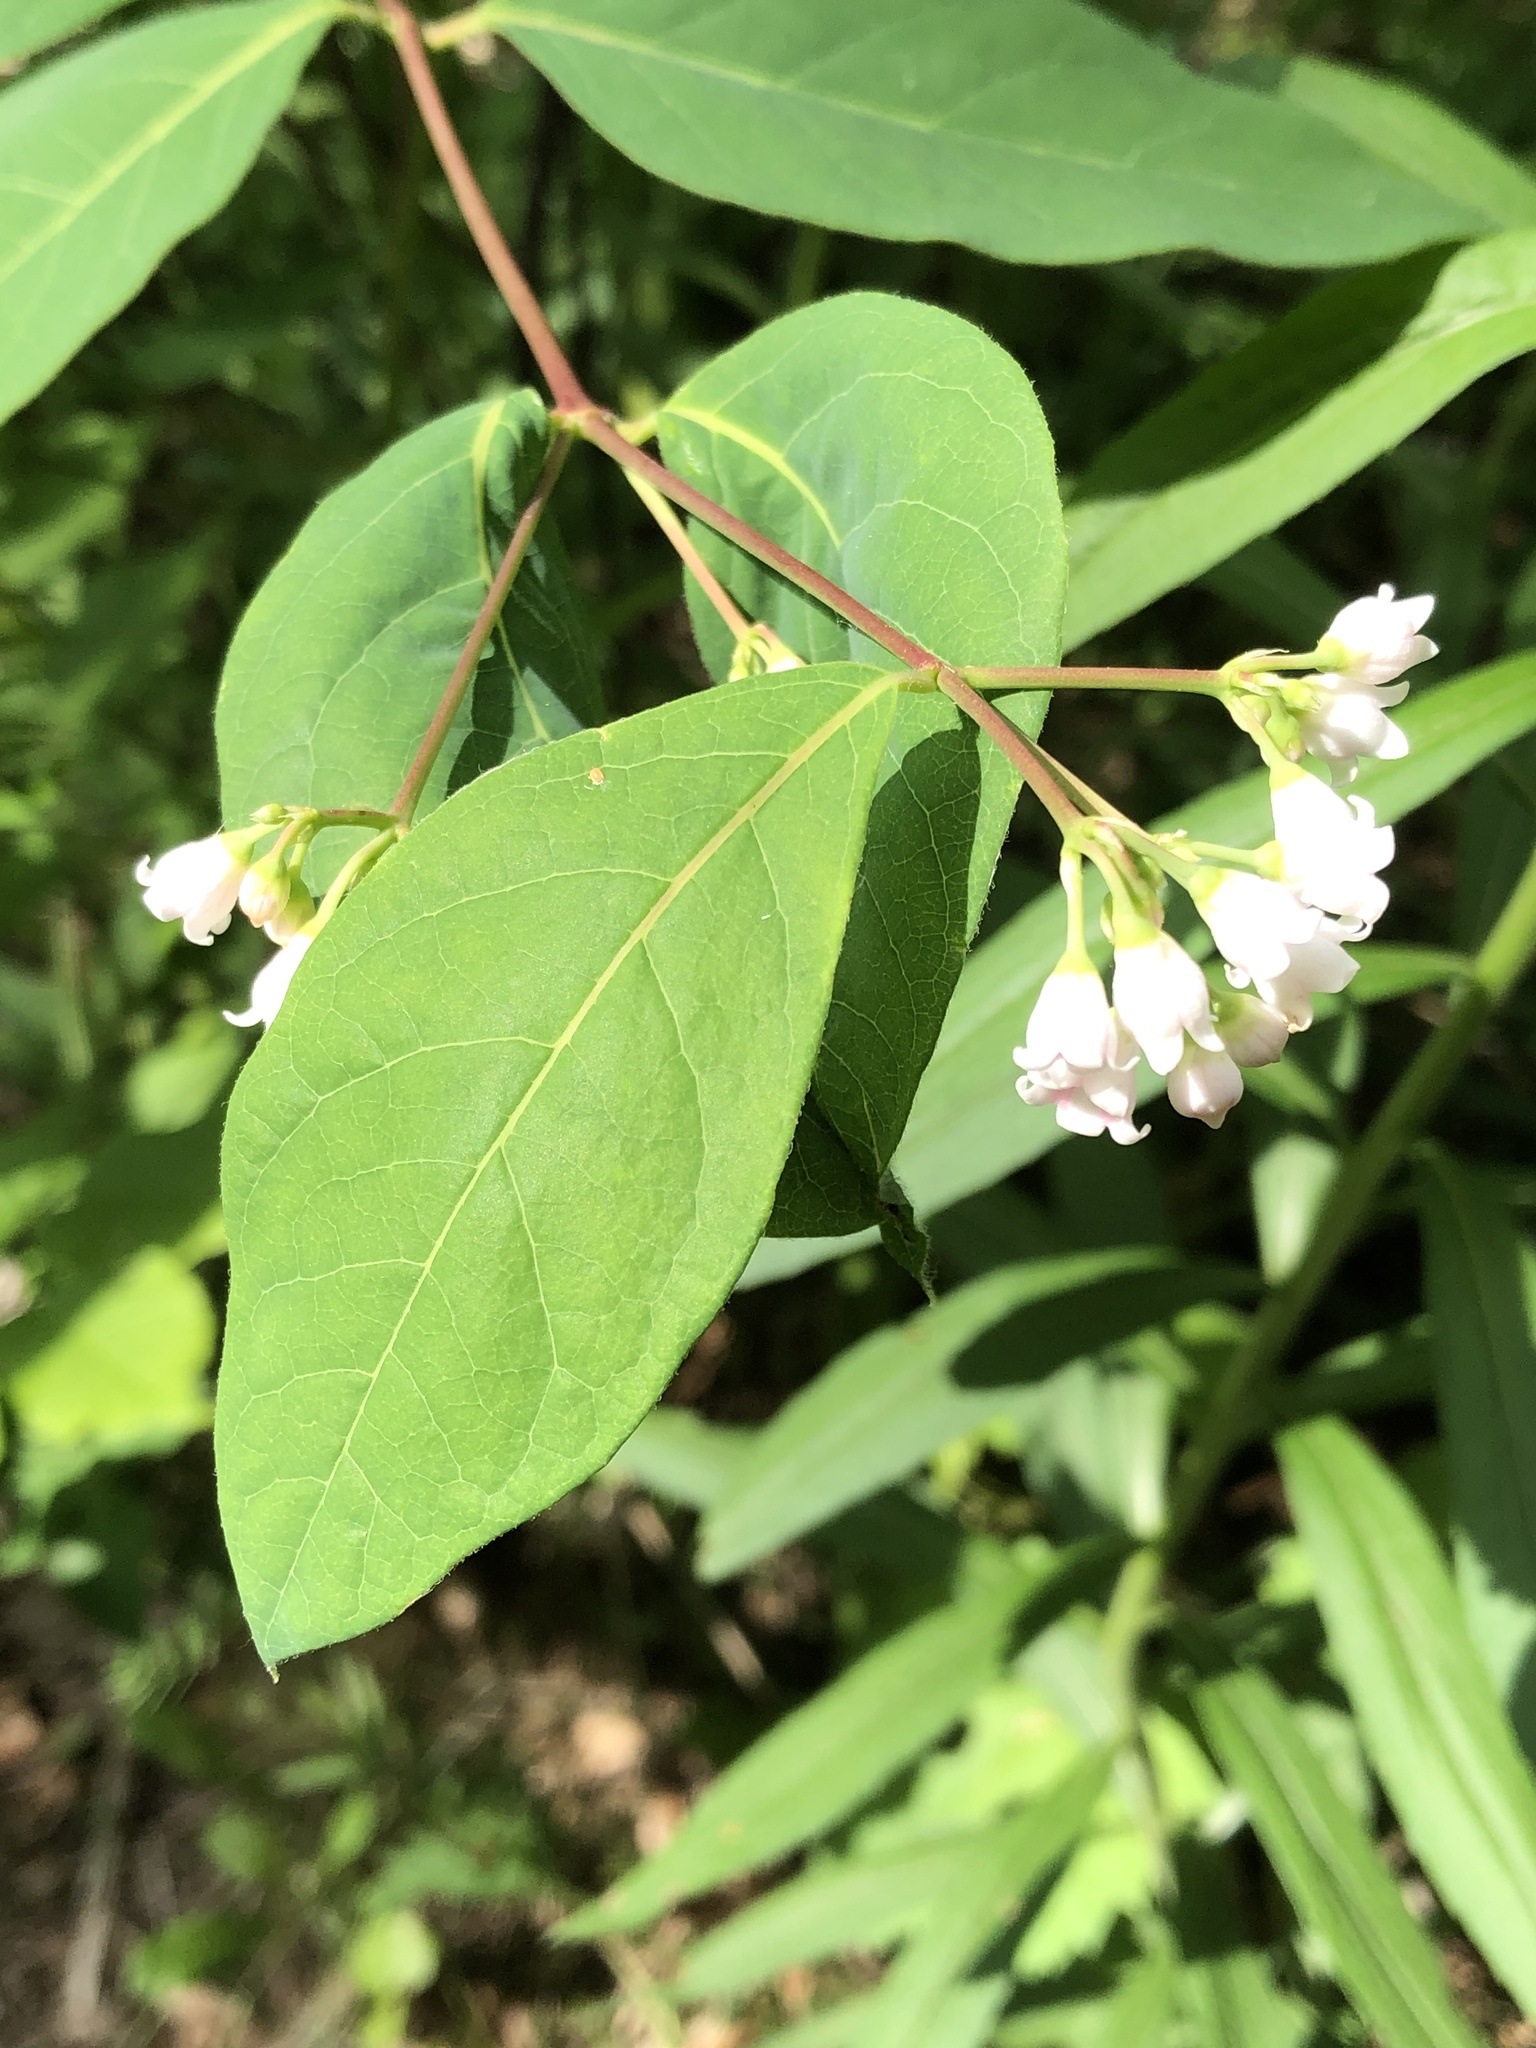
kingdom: Plantae
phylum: Tracheophyta
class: Magnoliopsida
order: Gentianales
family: Apocynaceae
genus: Apocynum
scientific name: Apocynum androsaemifolium
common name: Spreading dogbane
